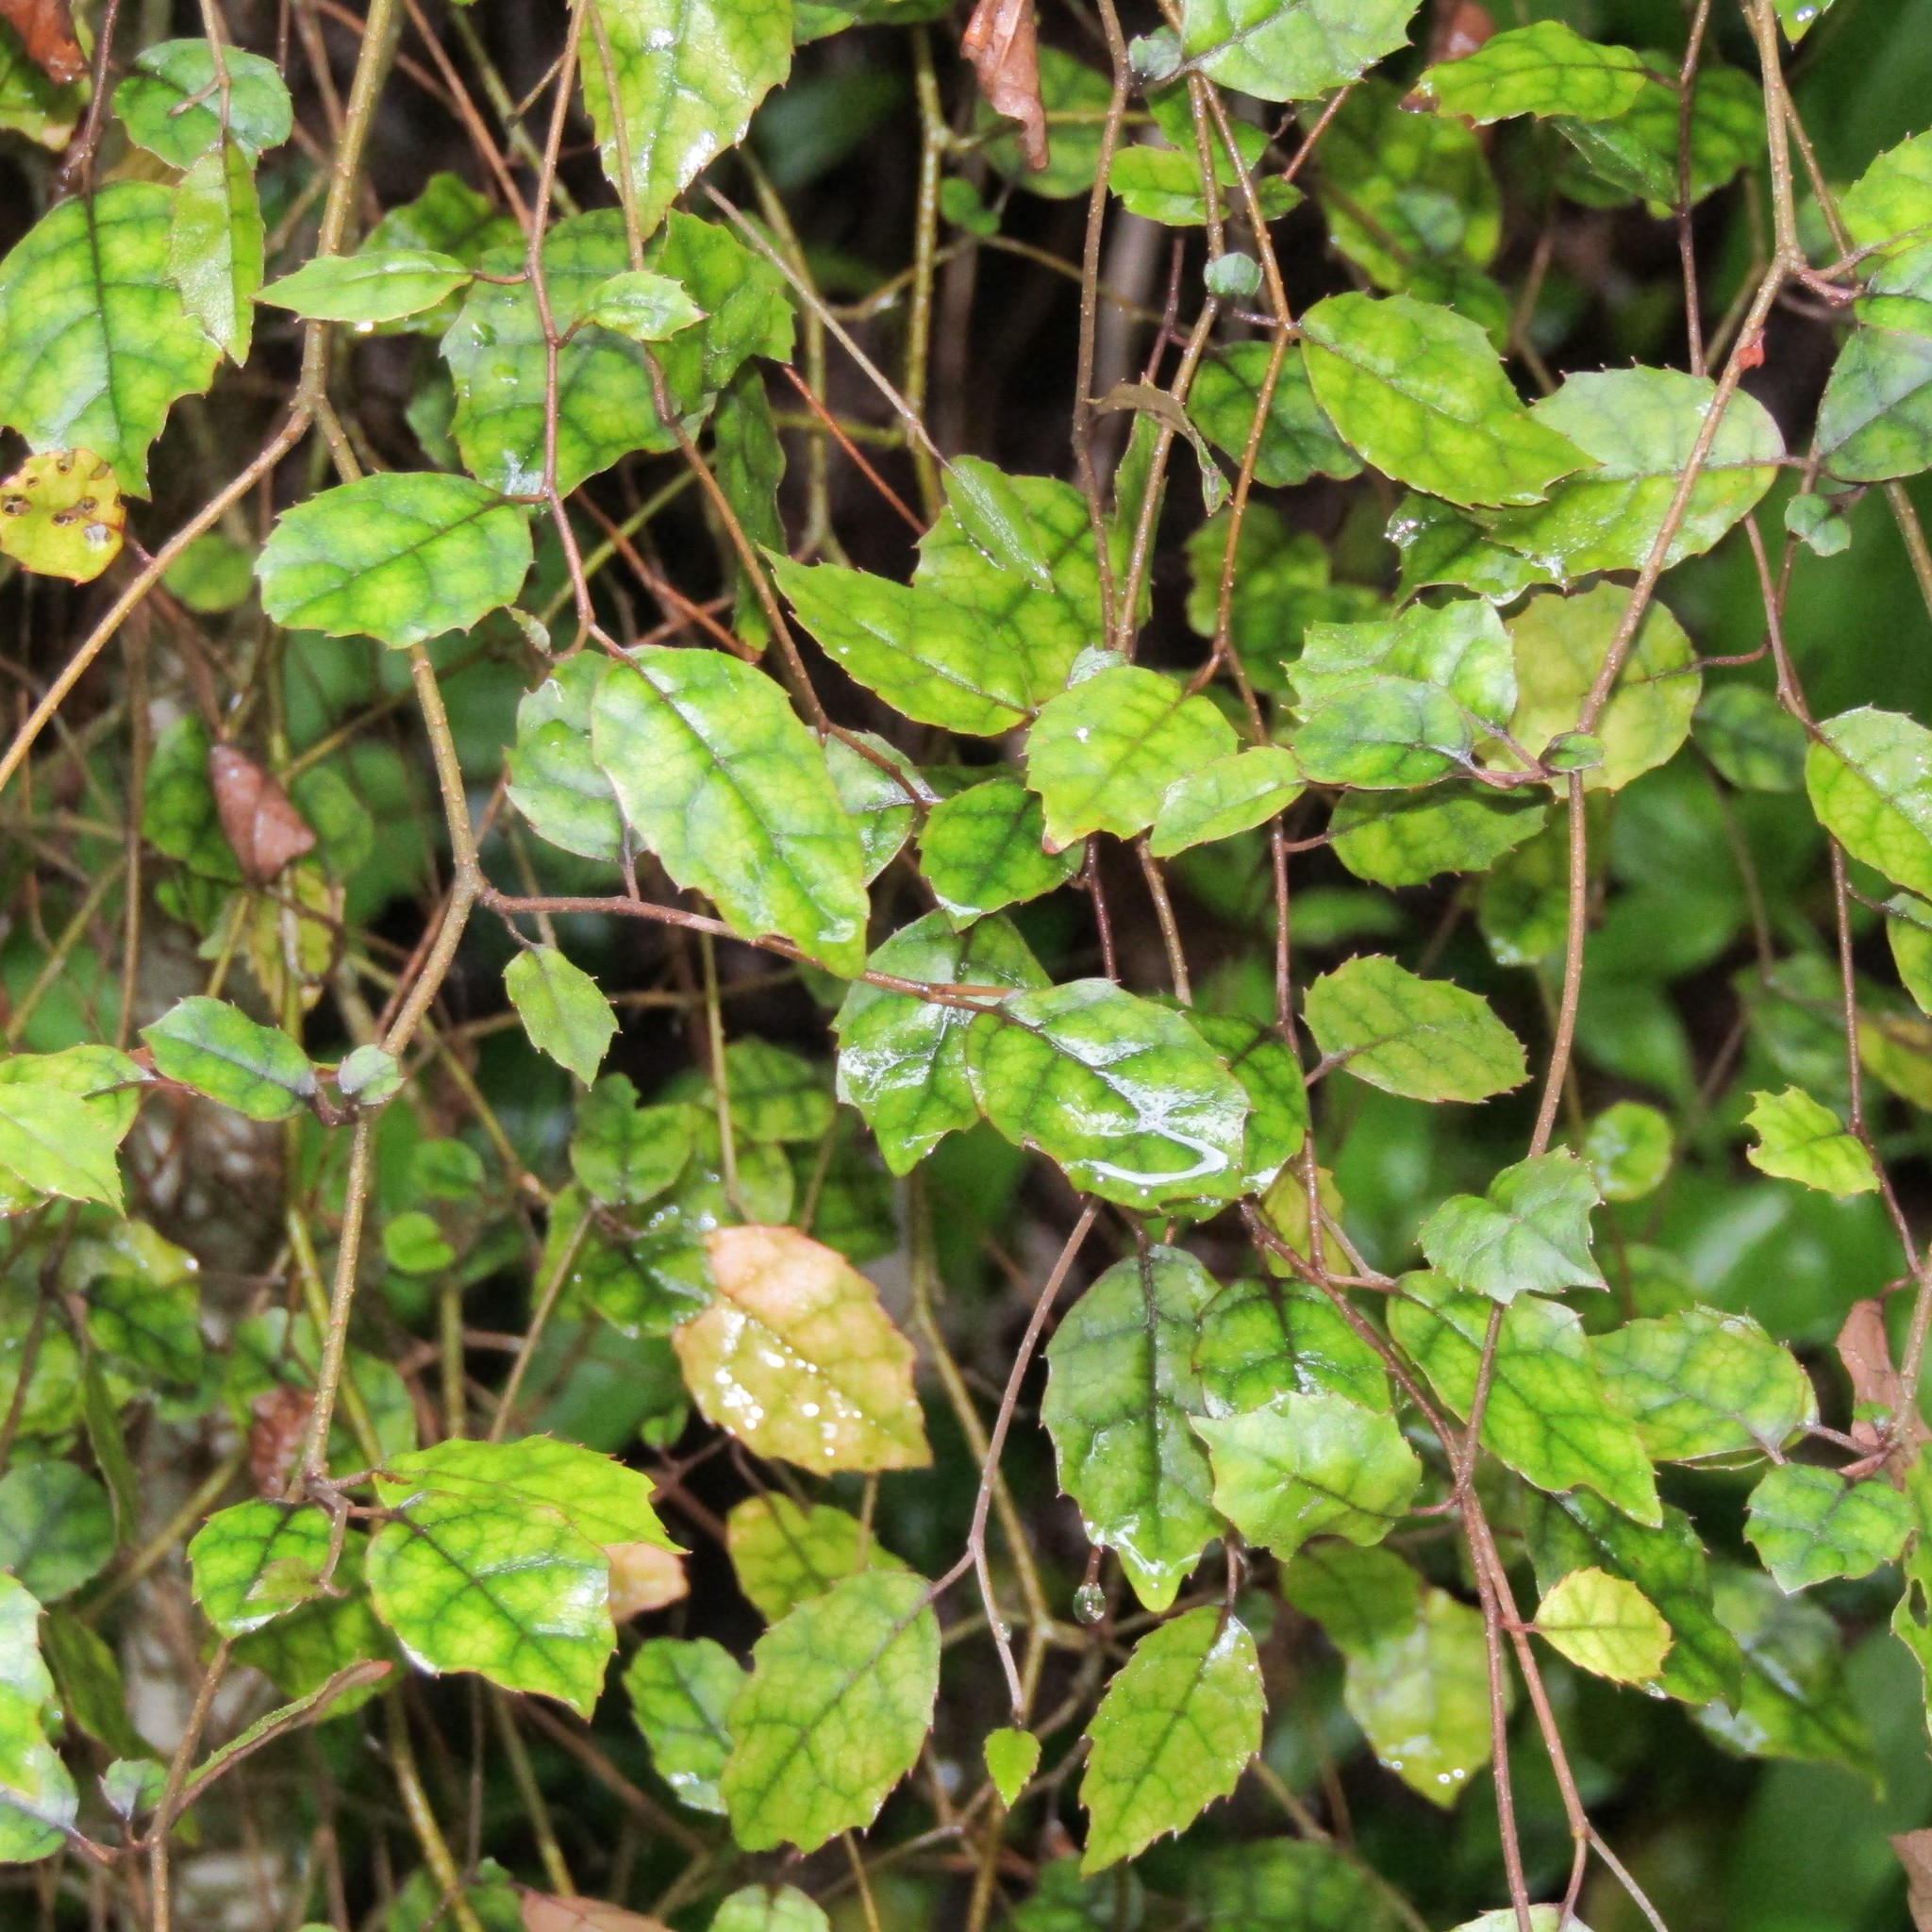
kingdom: Plantae
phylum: Tracheophyta
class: Magnoliopsida
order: Asterales
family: Rousseaceae
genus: Carpodetus
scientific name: Carpodetus serratus
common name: White mapau
